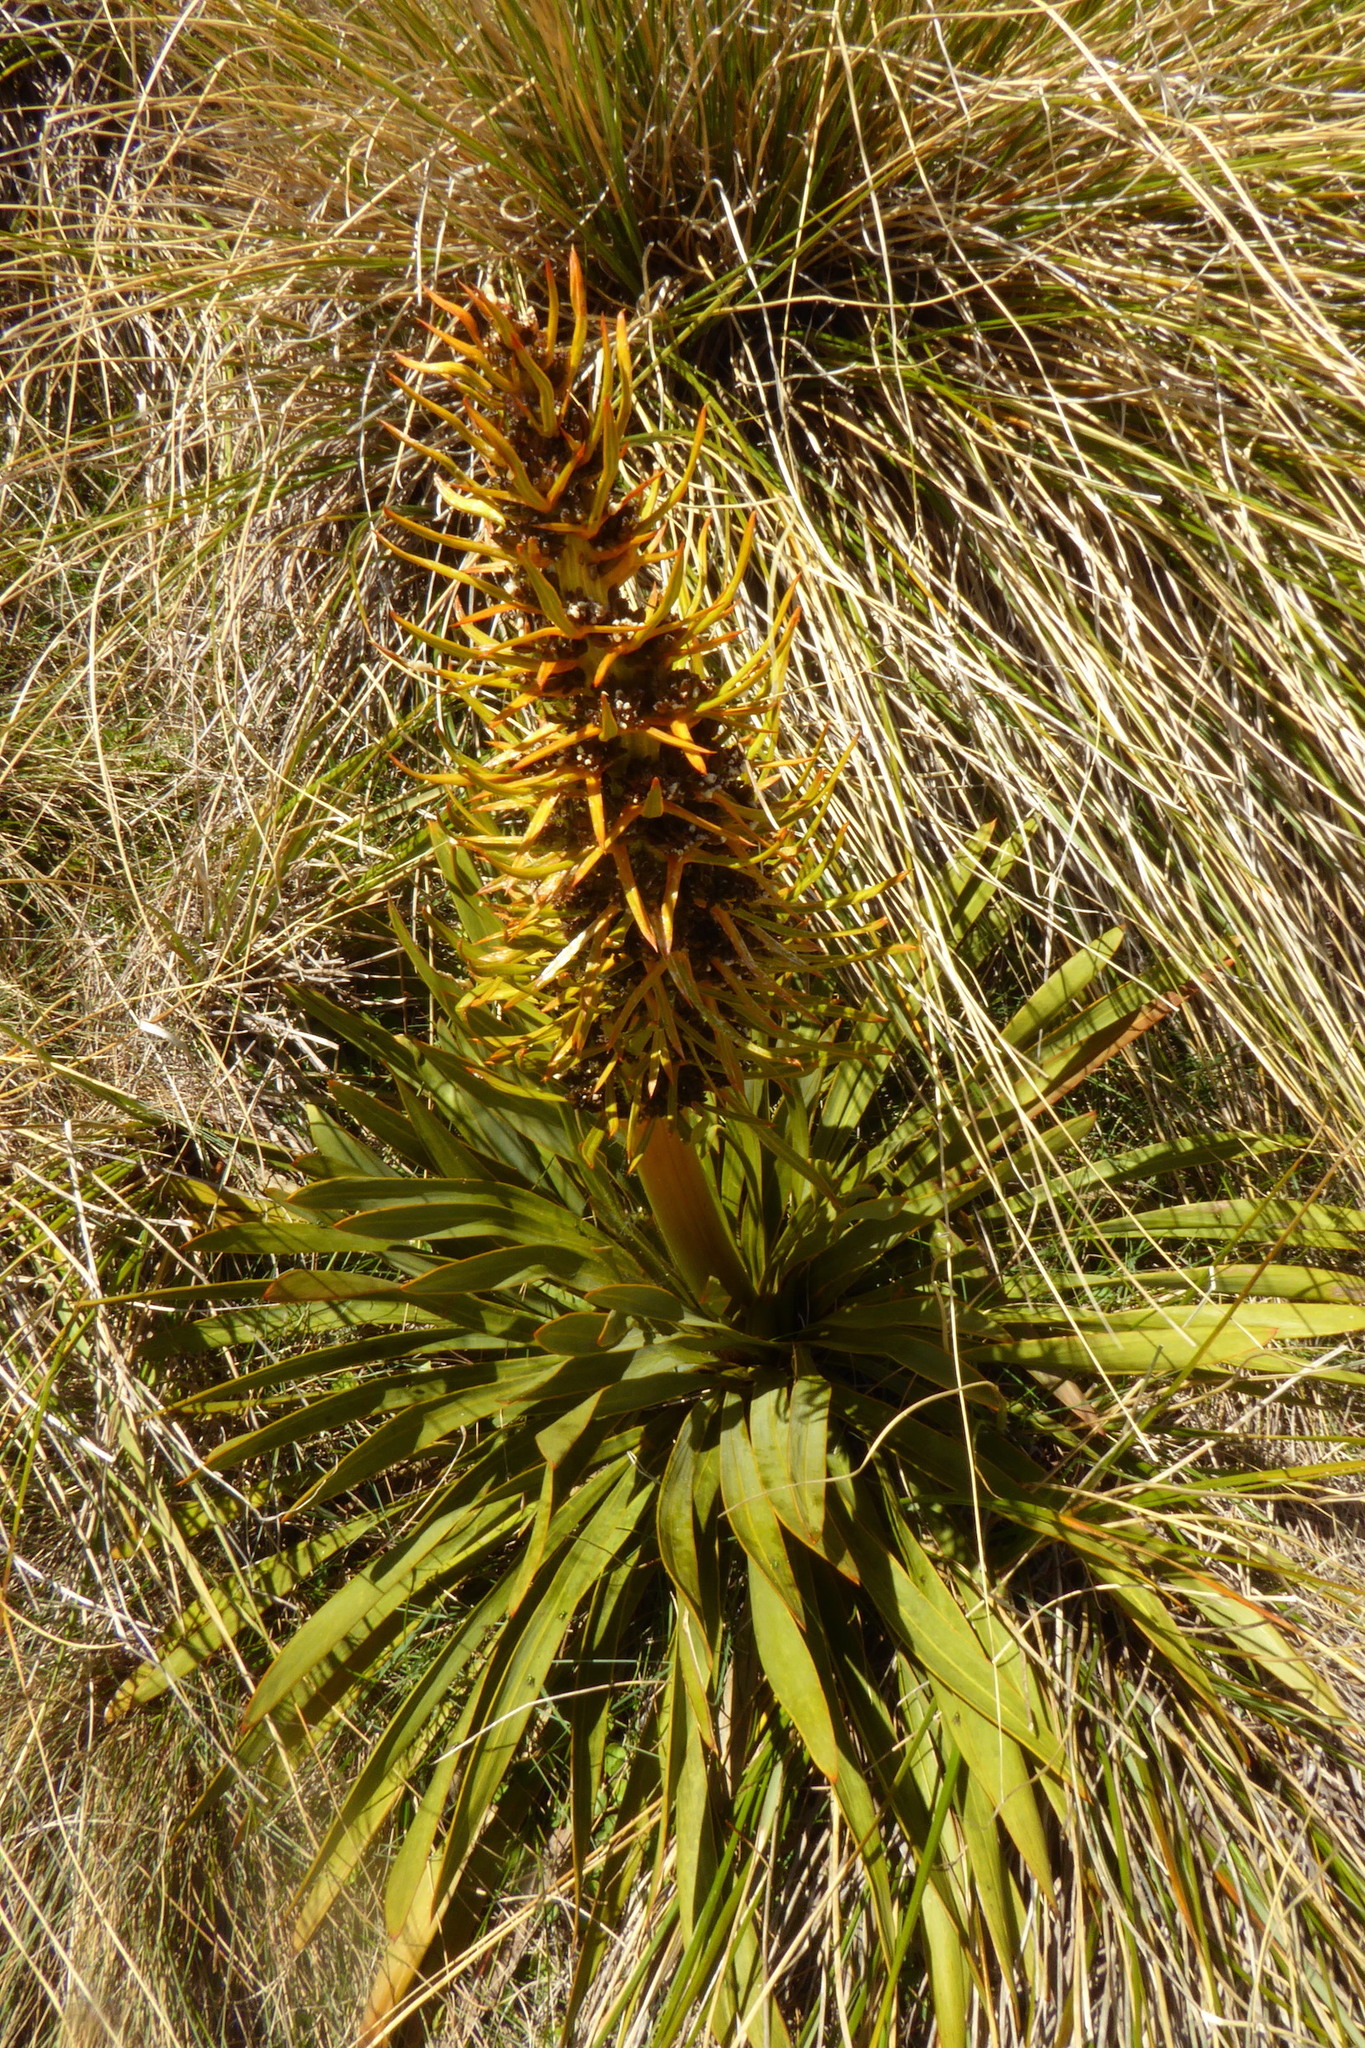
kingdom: Plantae
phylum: Tracheophyta
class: Magnoliopsida
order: Apiales
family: Apiaceae
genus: Aciphylla
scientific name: Aciphylla kirkii
